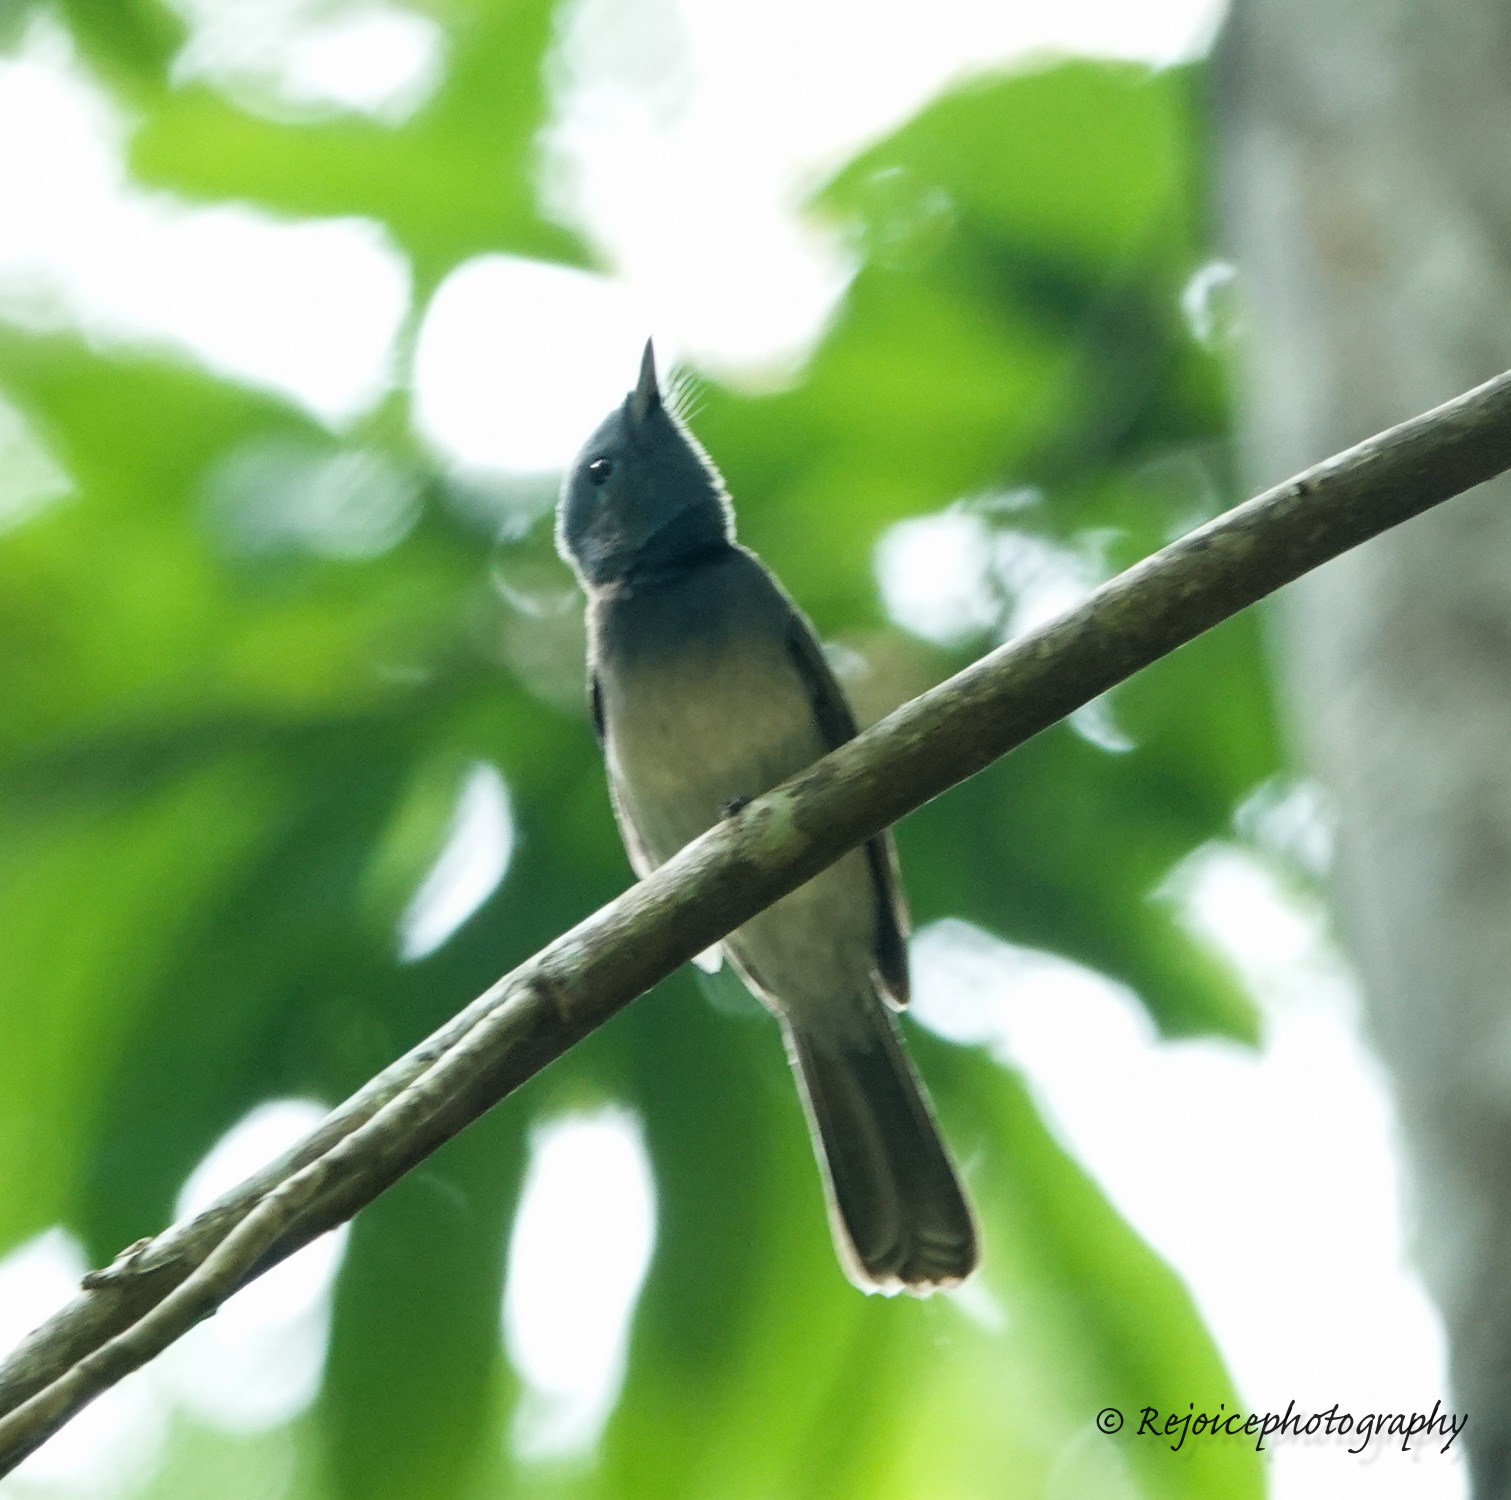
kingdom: Animalia
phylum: Chordata
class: Aves
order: Passeriformes
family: Monarchidae
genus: Hypothymis
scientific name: Hypothymis azurea
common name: Black-naped monarch
